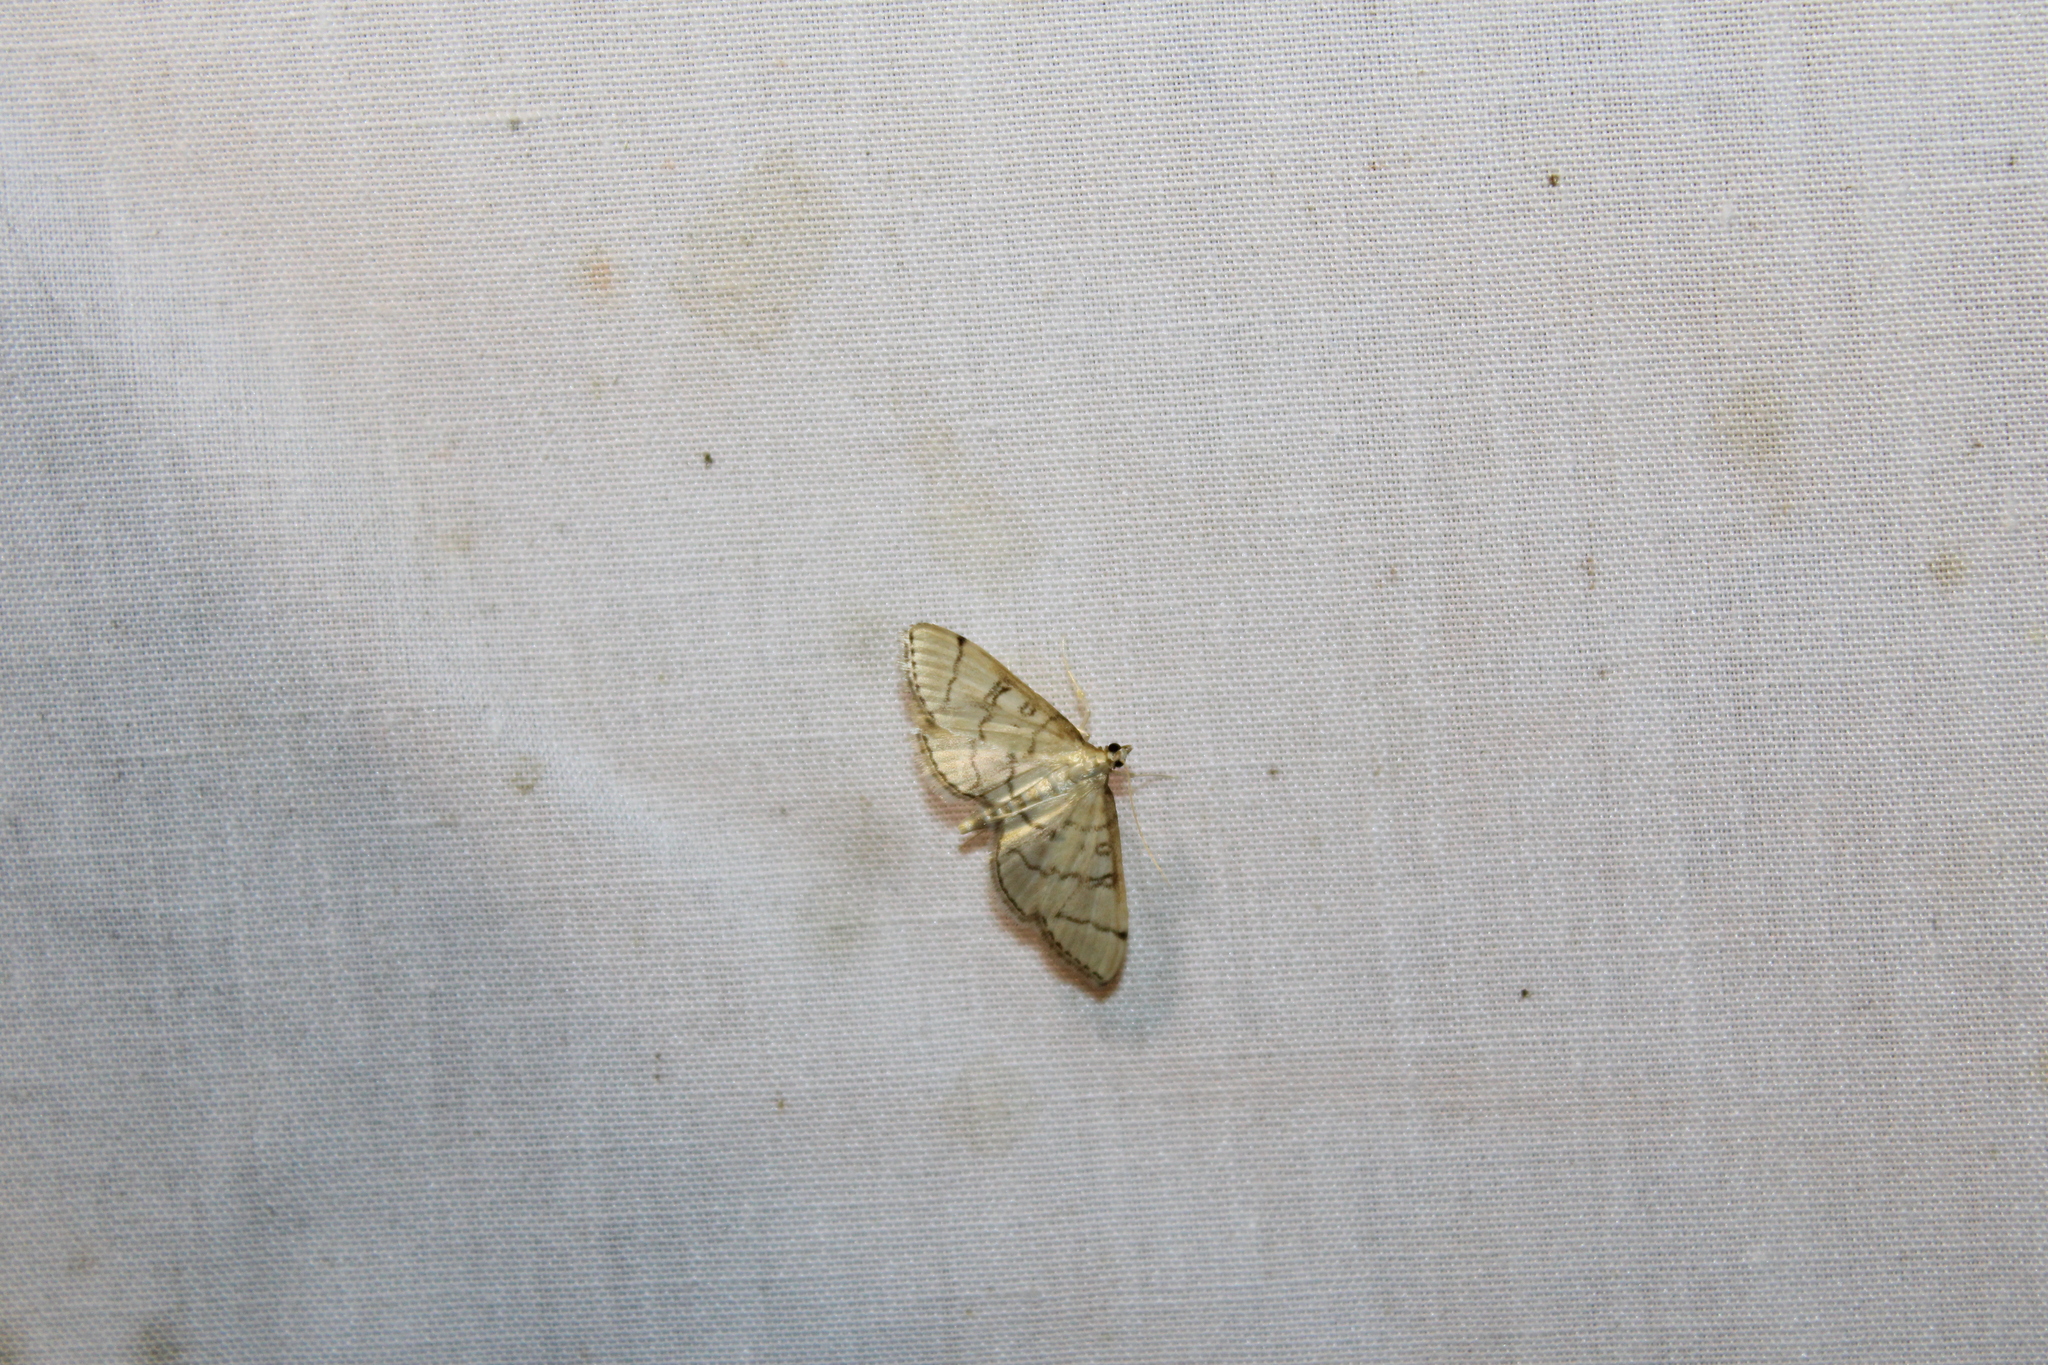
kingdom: Animalia
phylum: Arthropoda
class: Insecta
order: Lepidoptera
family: Crambidae
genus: Lamprosema
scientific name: Lamprosema Blepharomastix ranalis
